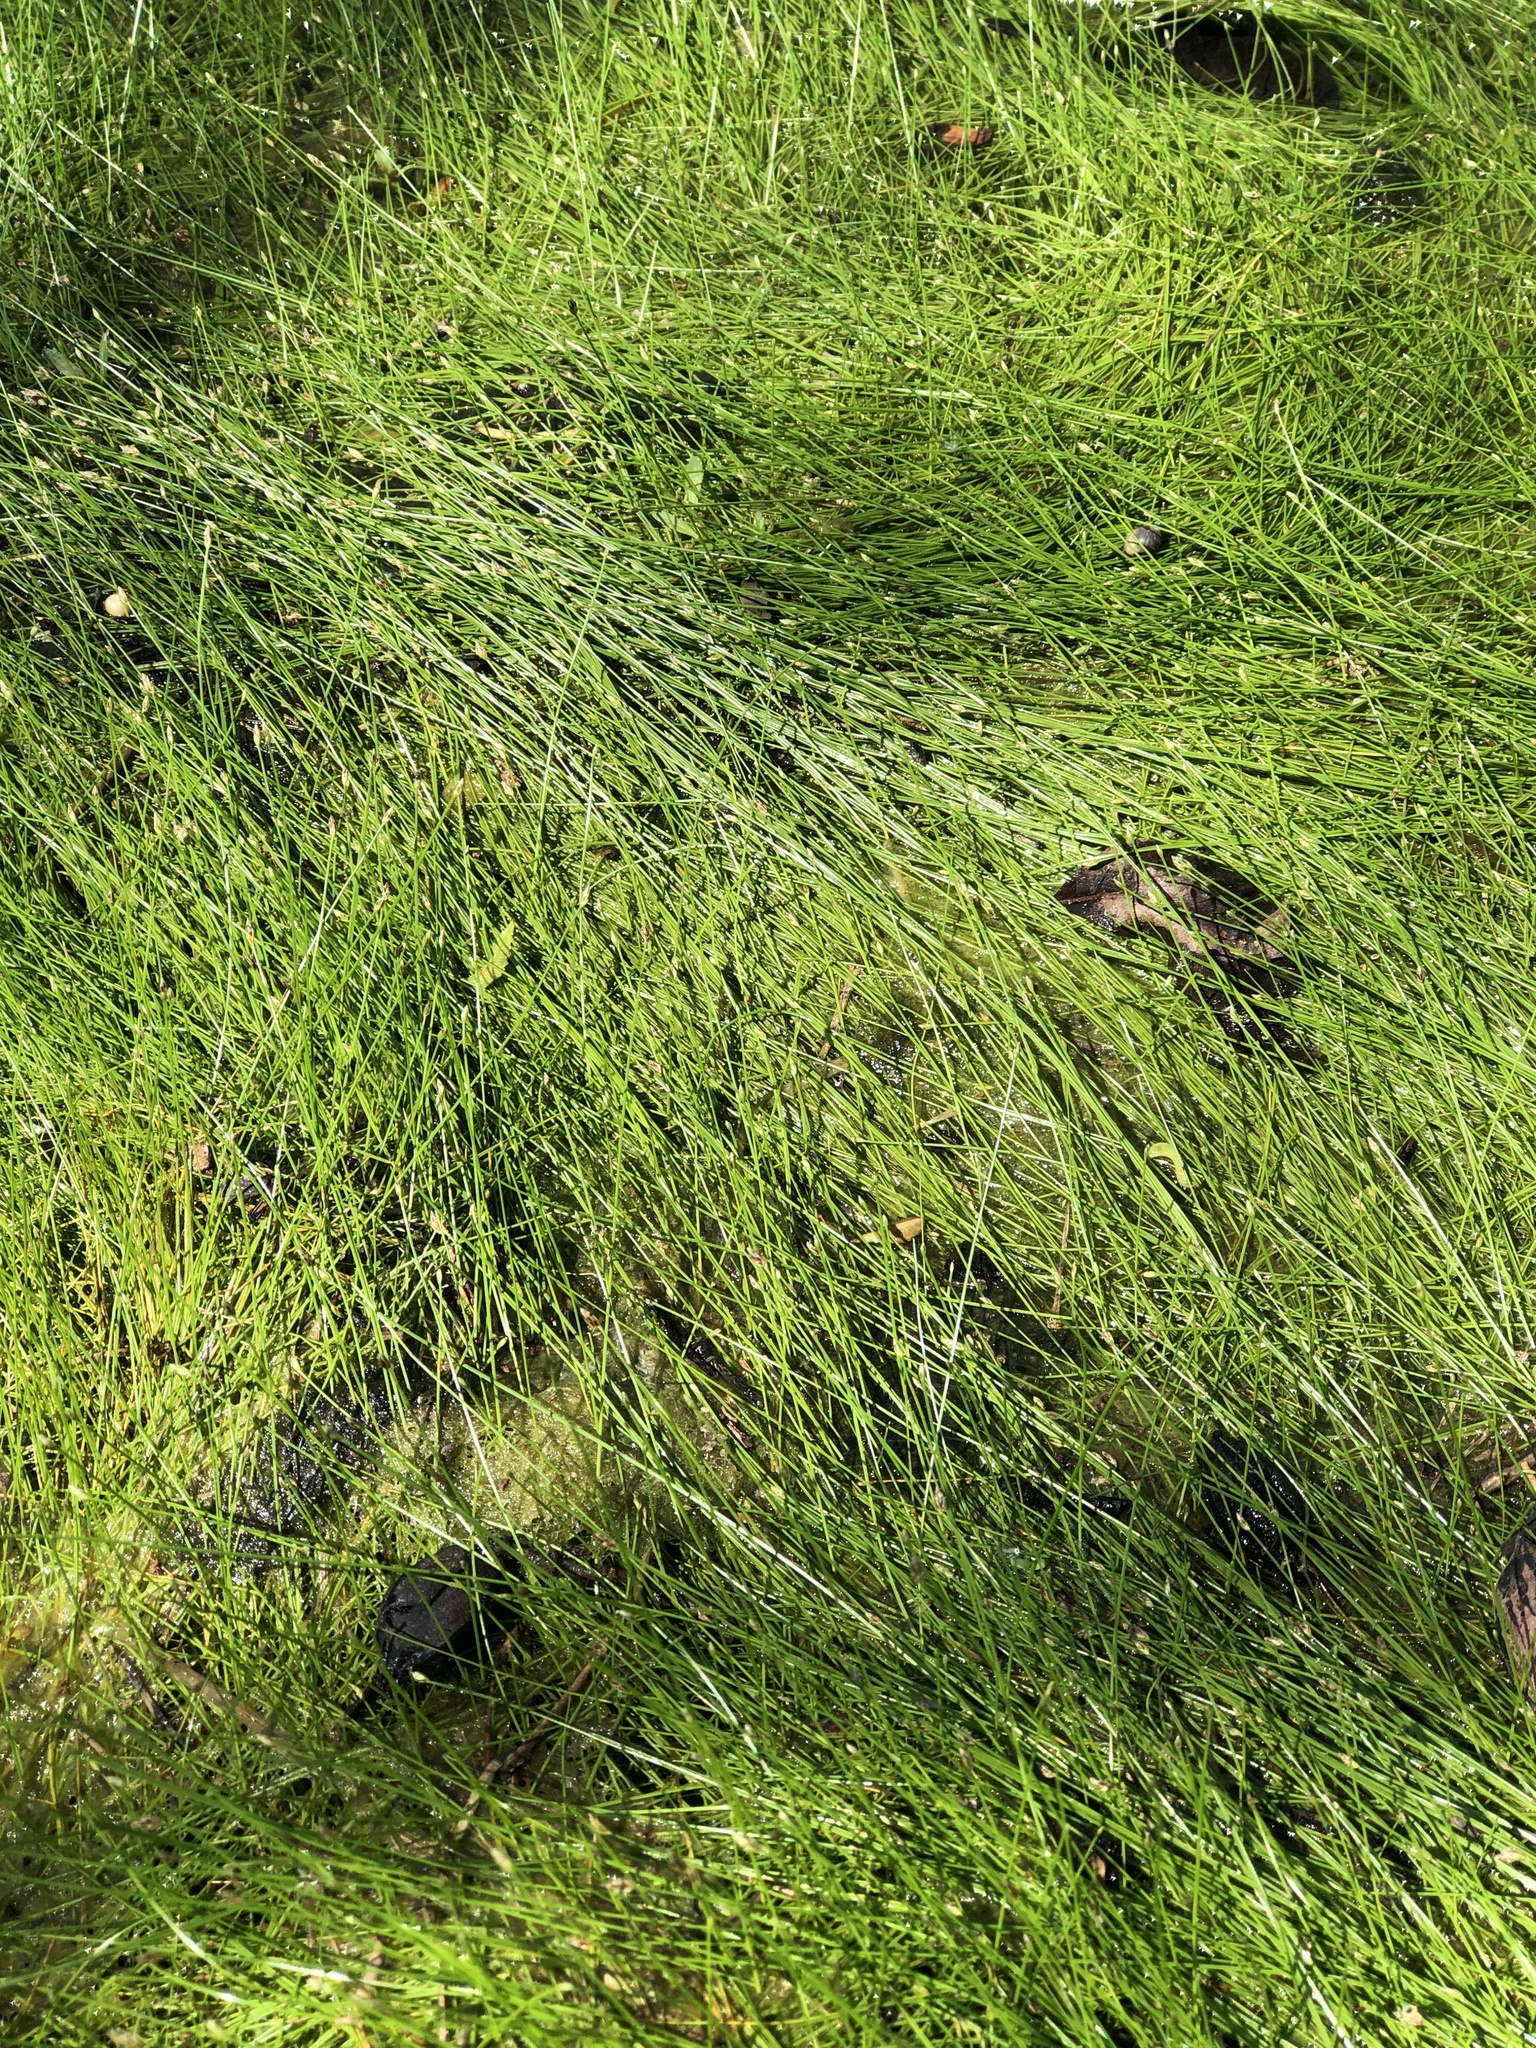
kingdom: Plantae
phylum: Tracheophyta
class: Liliopsida
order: Poales
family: Cyperaceae
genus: Eleocharis
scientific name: Eleocharis parvula
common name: Dwarf spike-rush
